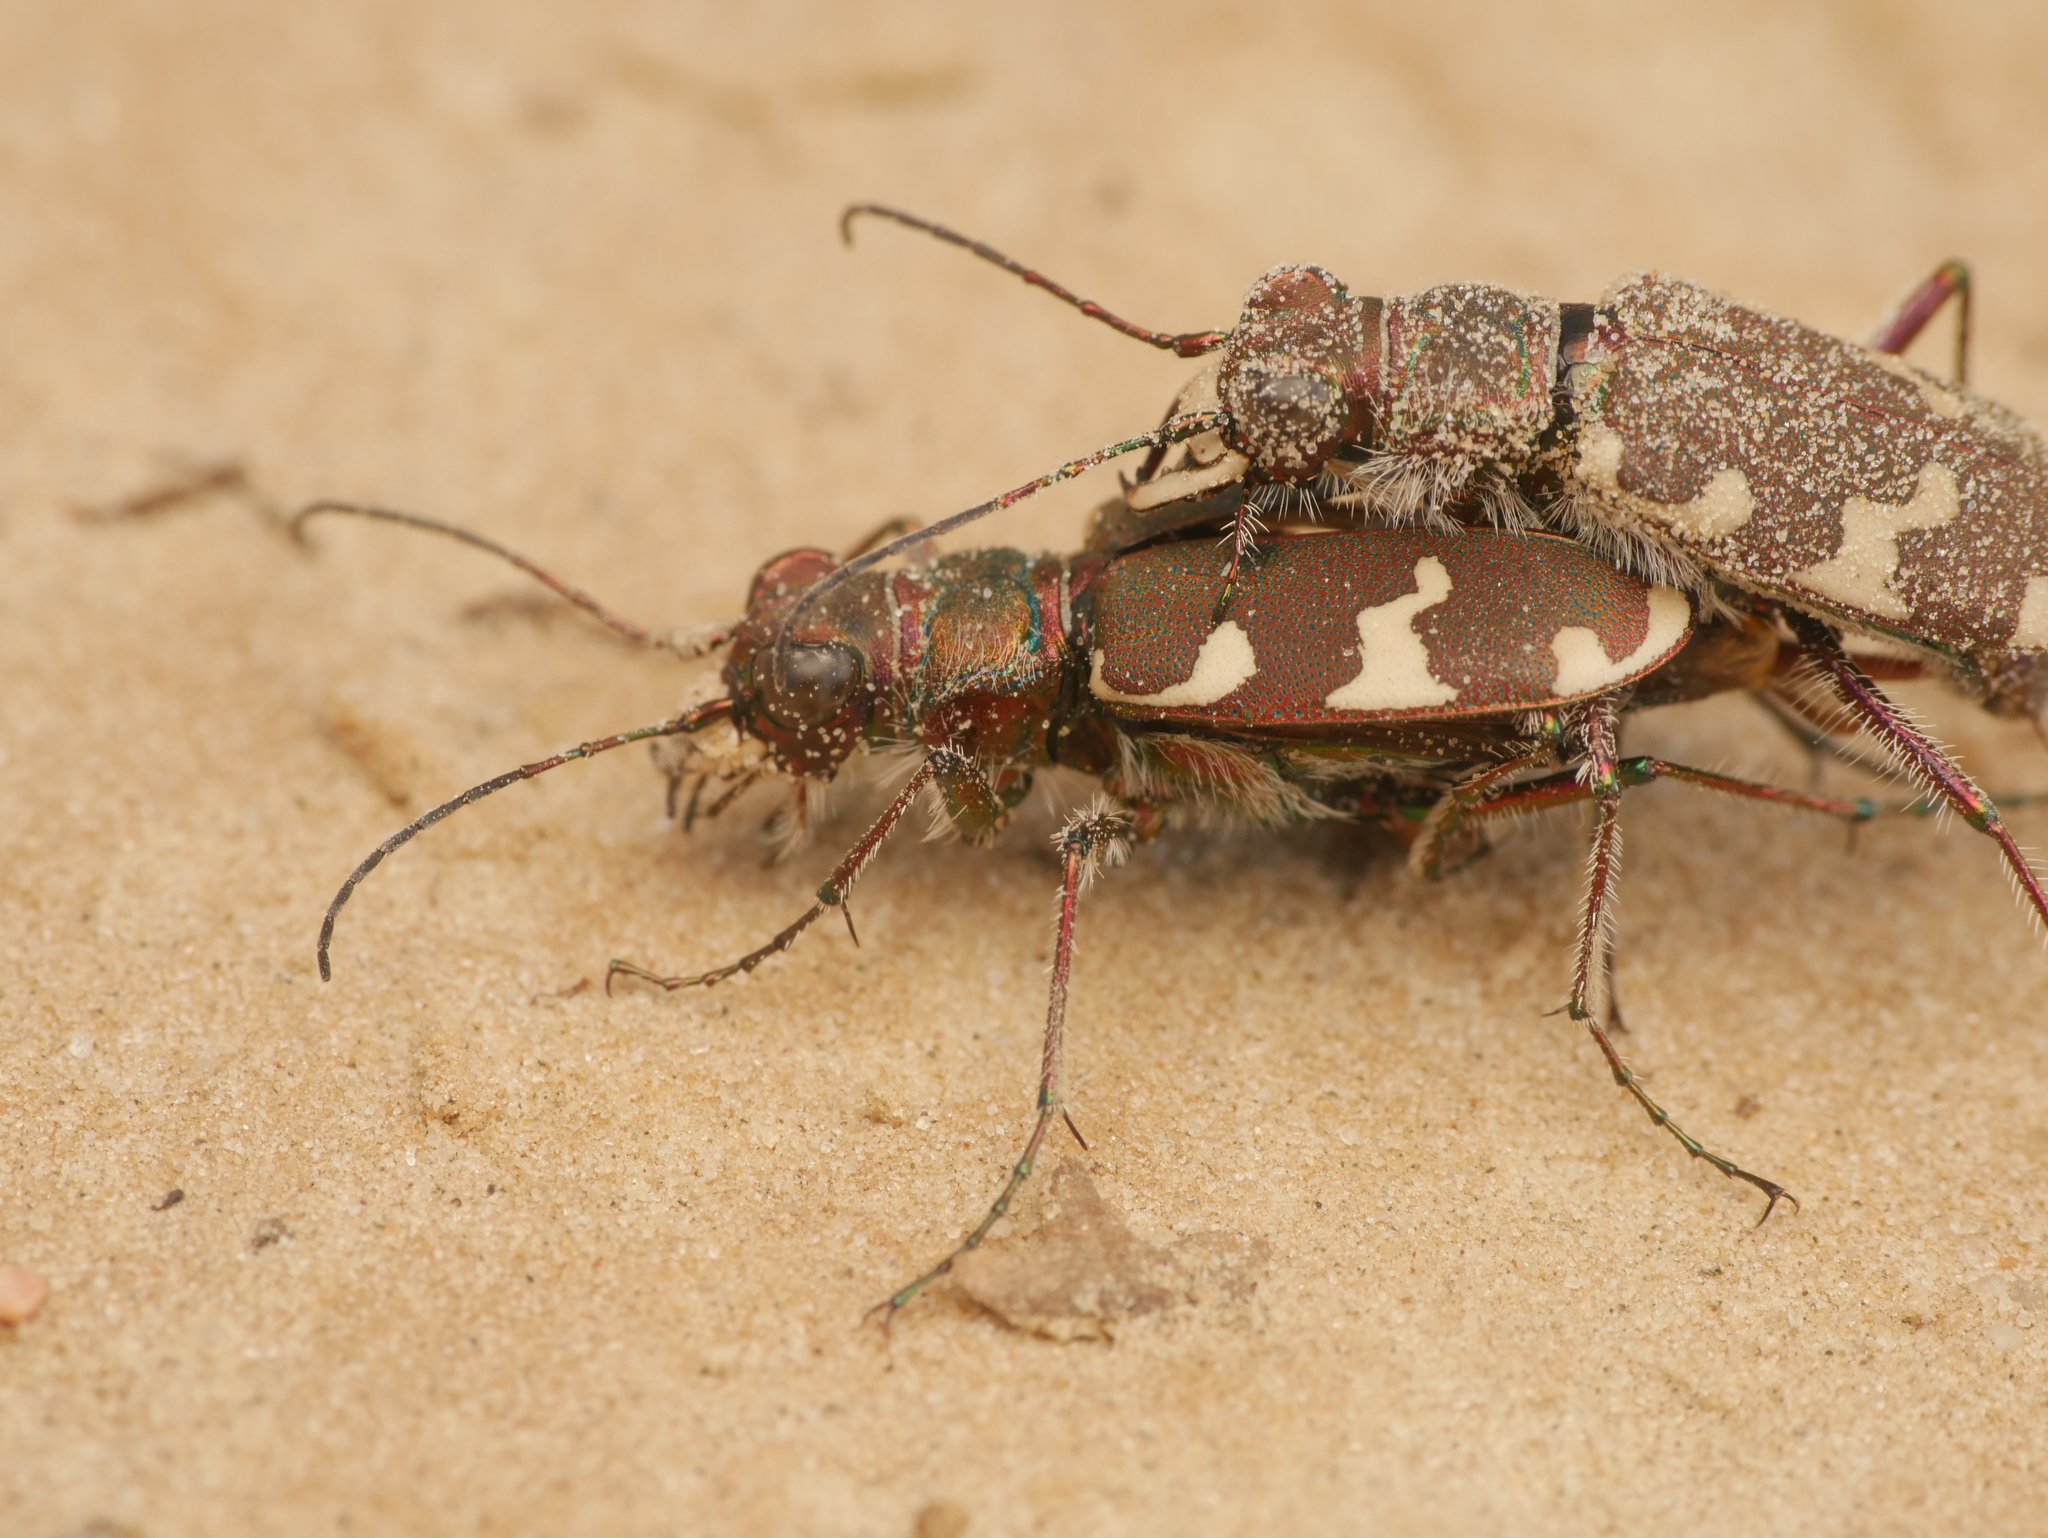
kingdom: Animalia
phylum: Arthropoda
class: Insecta
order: Coleoptera
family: Carabidae
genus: Cicindela
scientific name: Cicindela hybrida
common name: Northern dune tiger beetle
